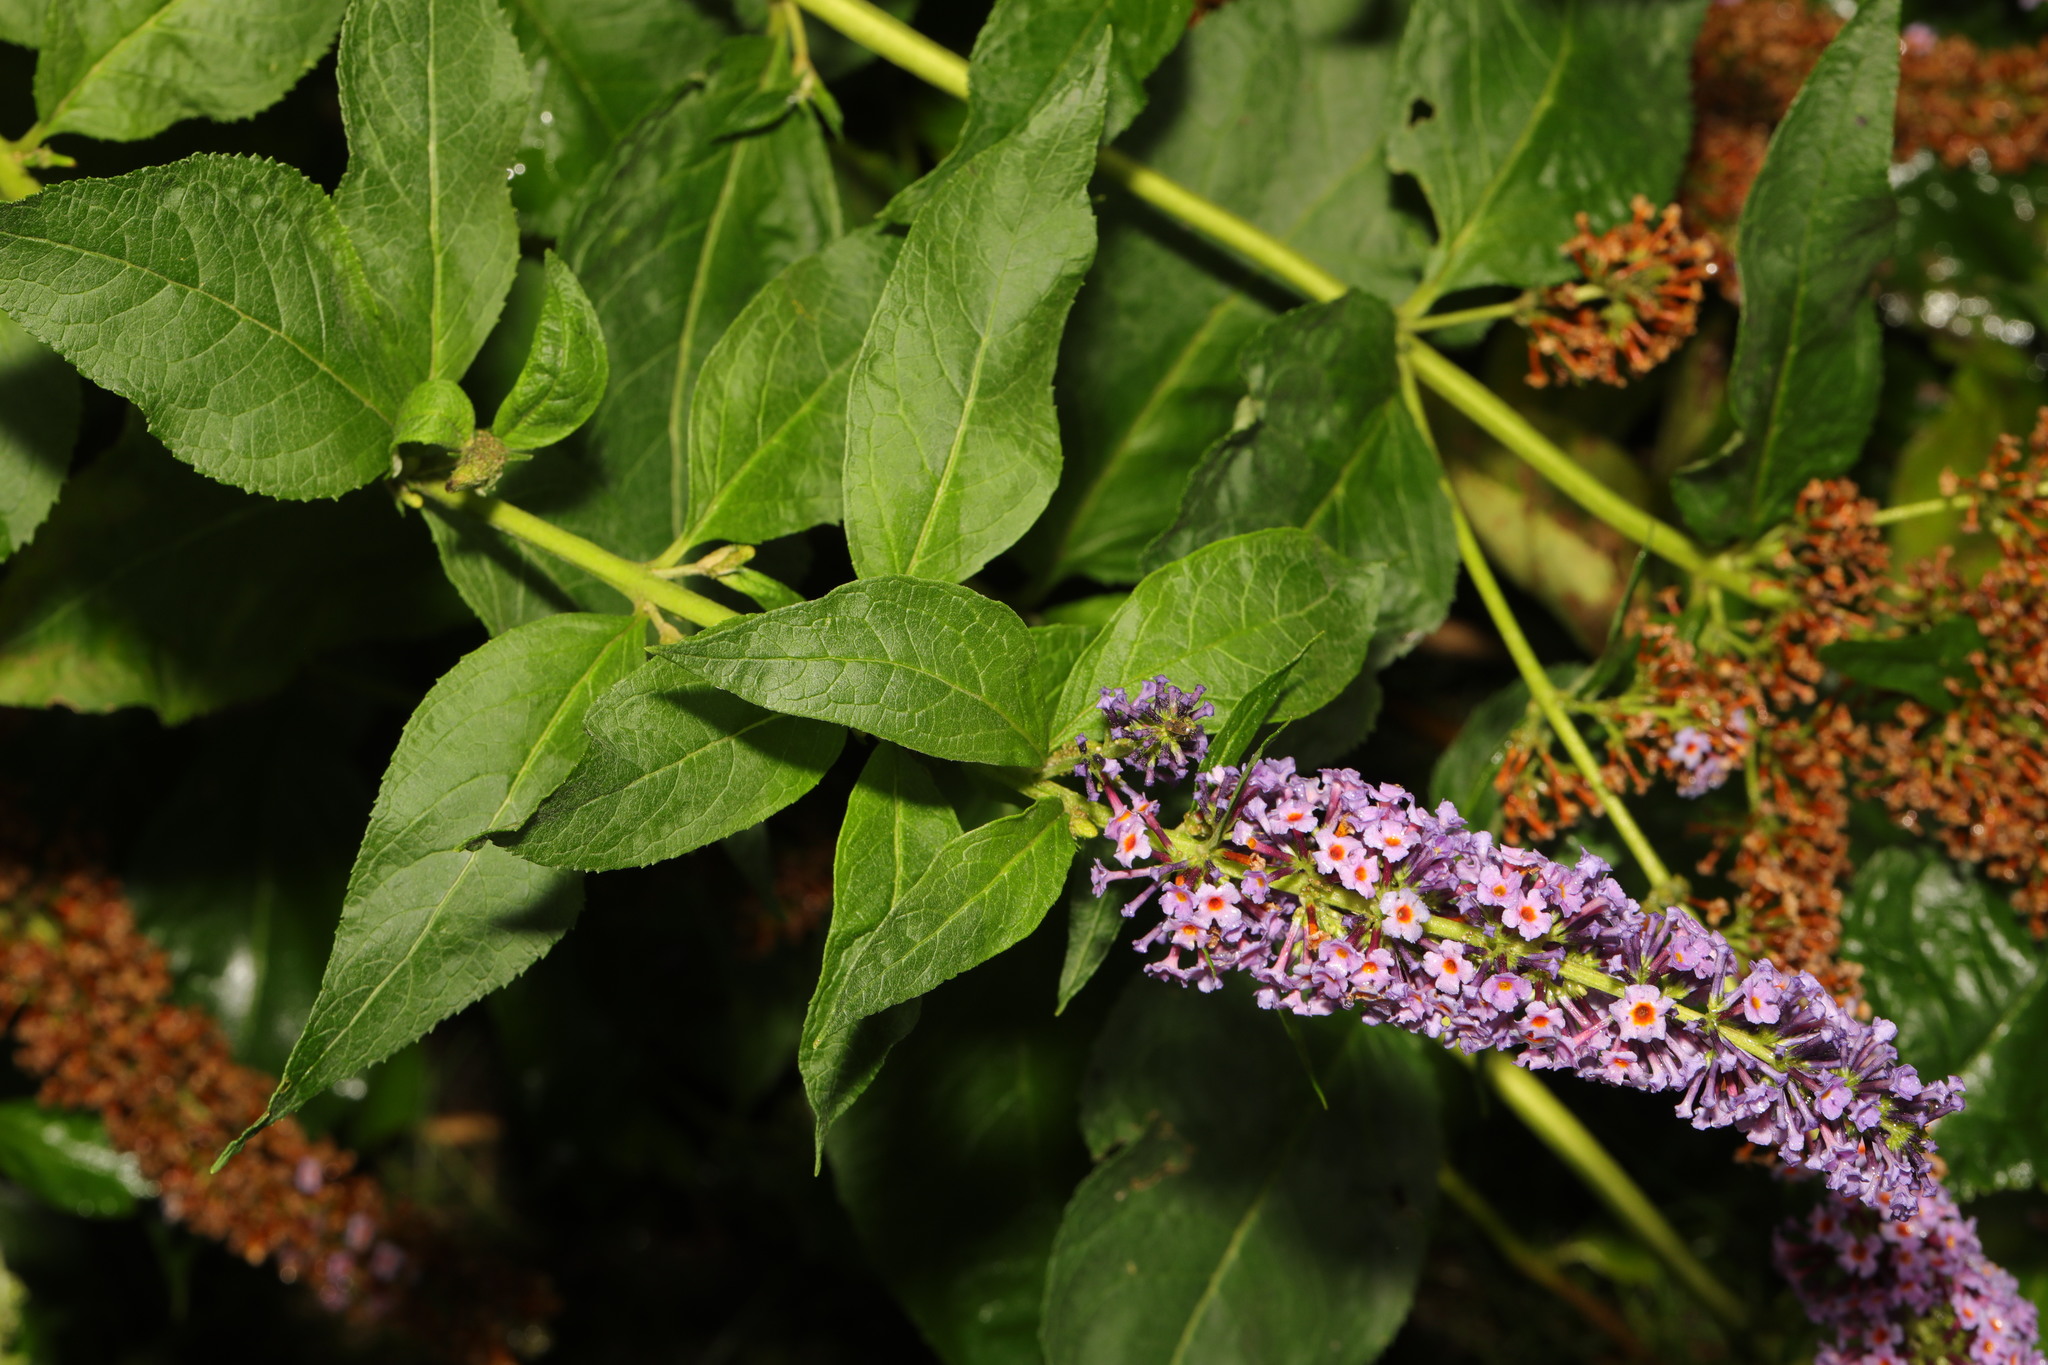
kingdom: Plantae
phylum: Tracheophyta
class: Magnoliopsida
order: Lamiales
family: Scrophulariaceae
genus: Buddleja
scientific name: Buddleja davidii
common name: Butterfly-bush
